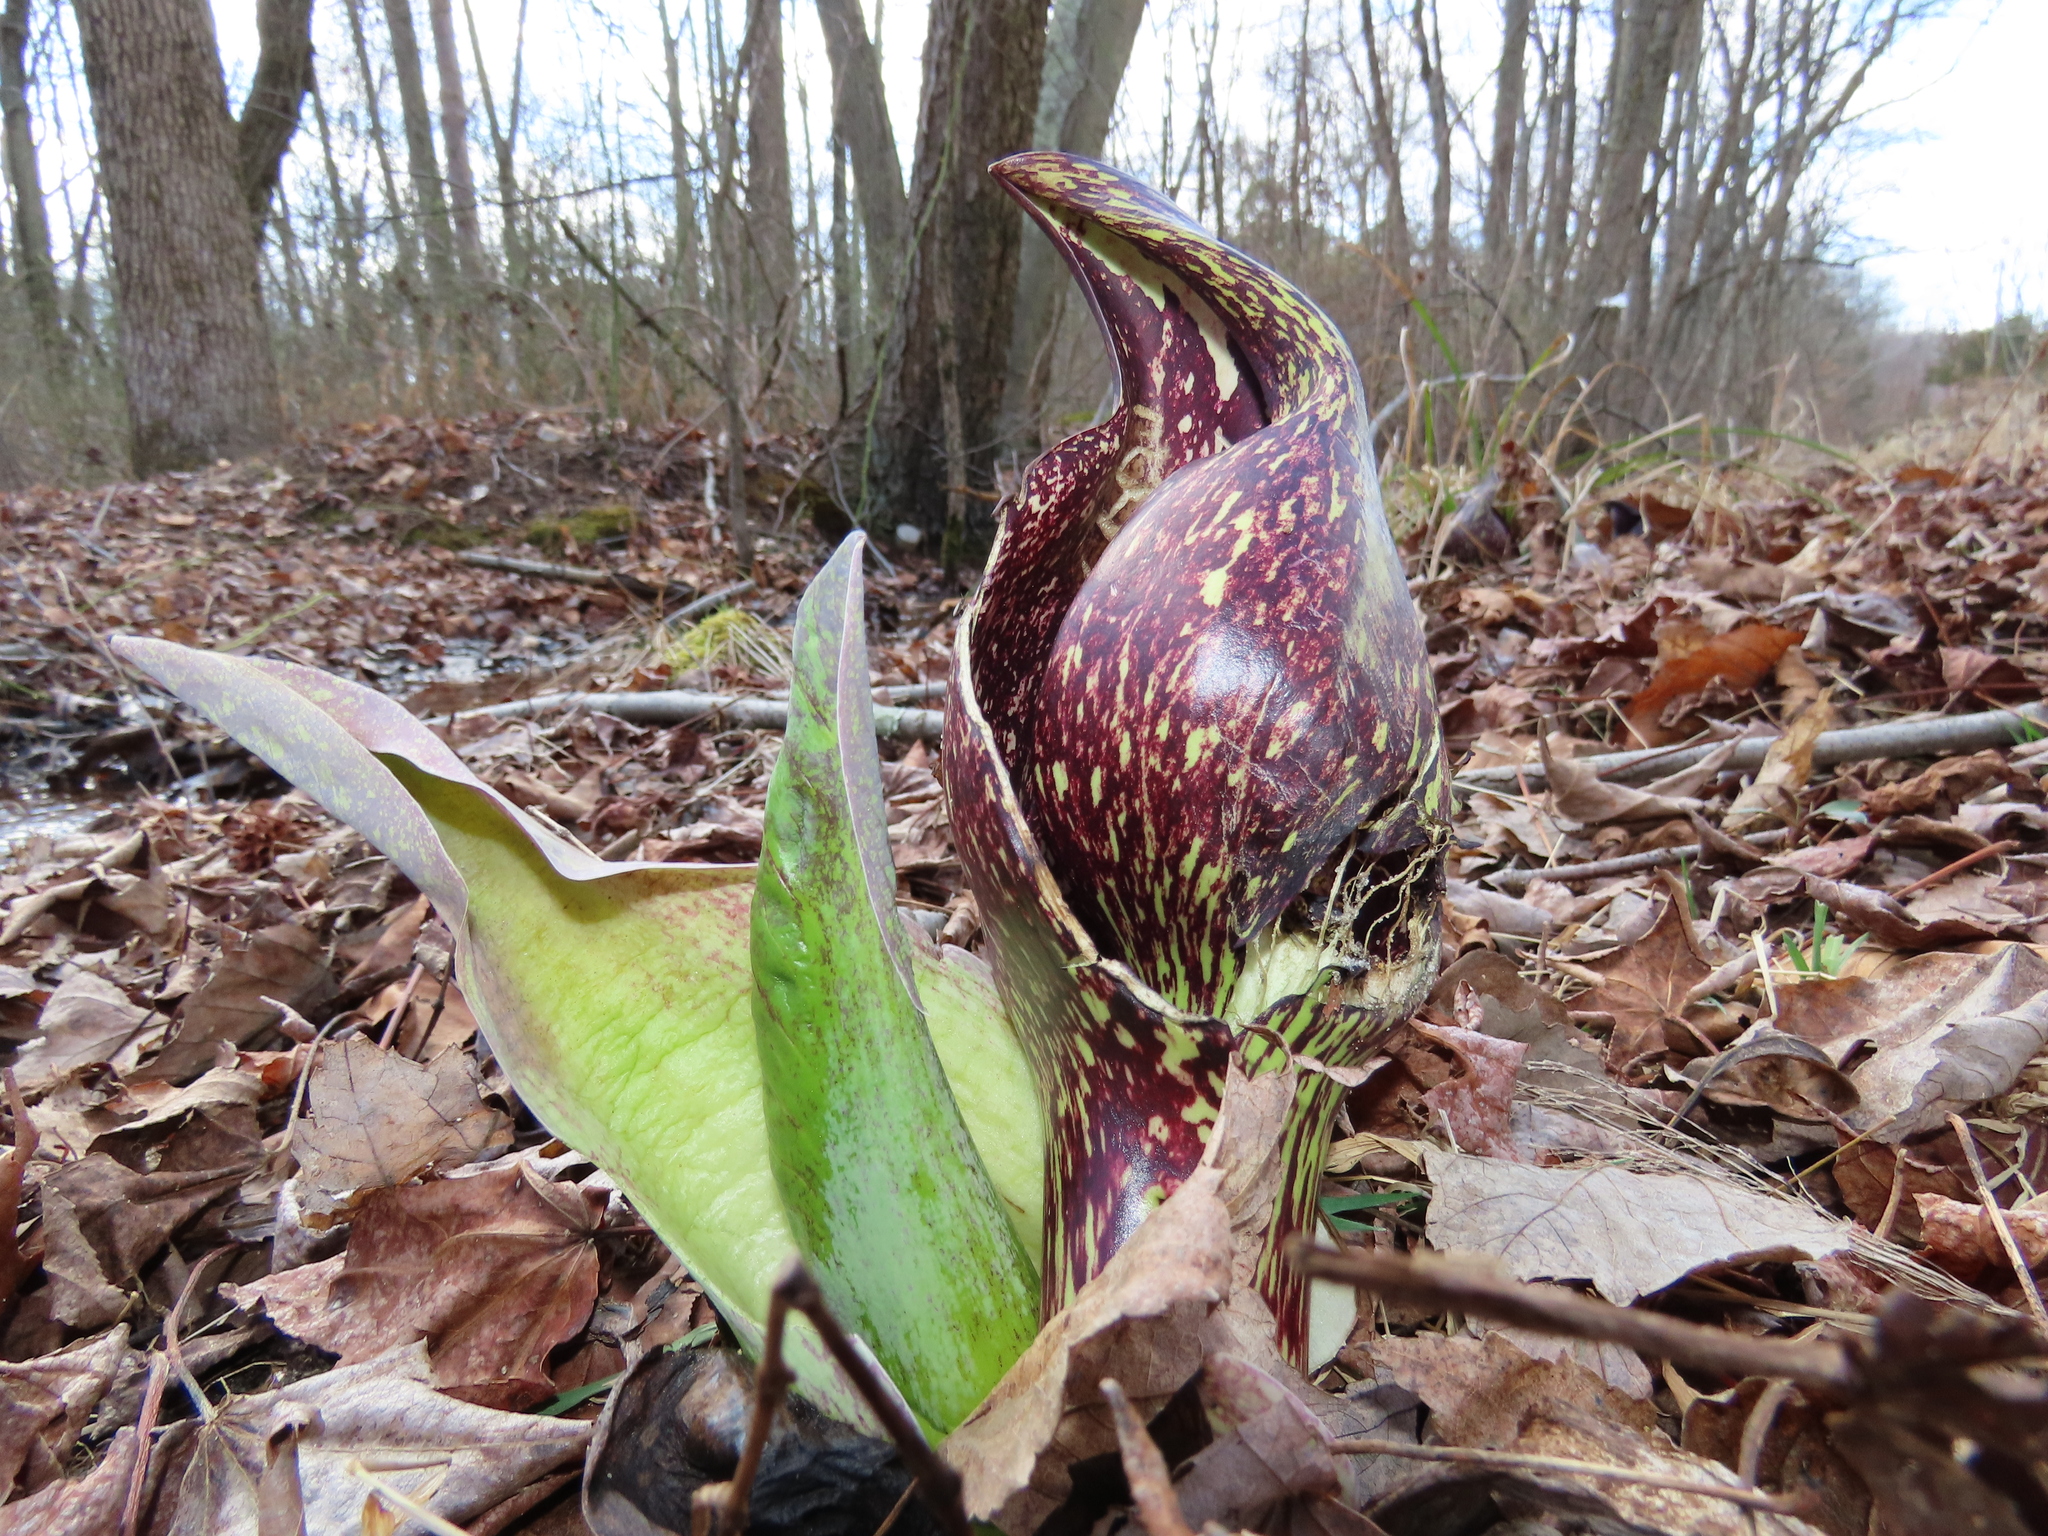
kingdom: Plantae
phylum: Tracheophyta
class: Liliopsida
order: Alismatales
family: Araceae
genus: Symplocarpus
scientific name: Symplocarpus foetidus
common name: Eastern skunk cabbage
